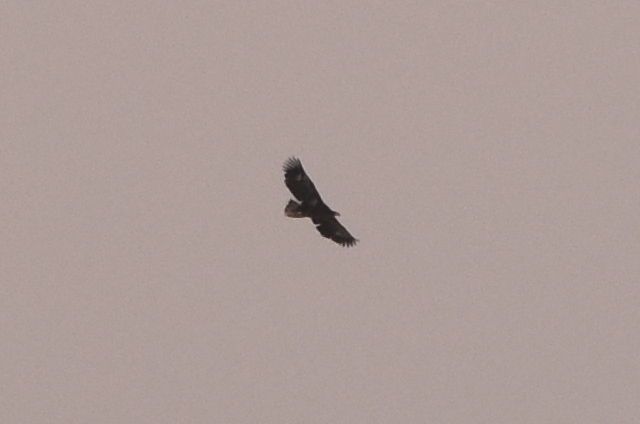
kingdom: Animalia
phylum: Chordata
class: Aves
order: Accipitriformes
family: Accipitridae
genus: Haliaeetus
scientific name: Haliaeetus pelagicus
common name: Steller's sea eagle
